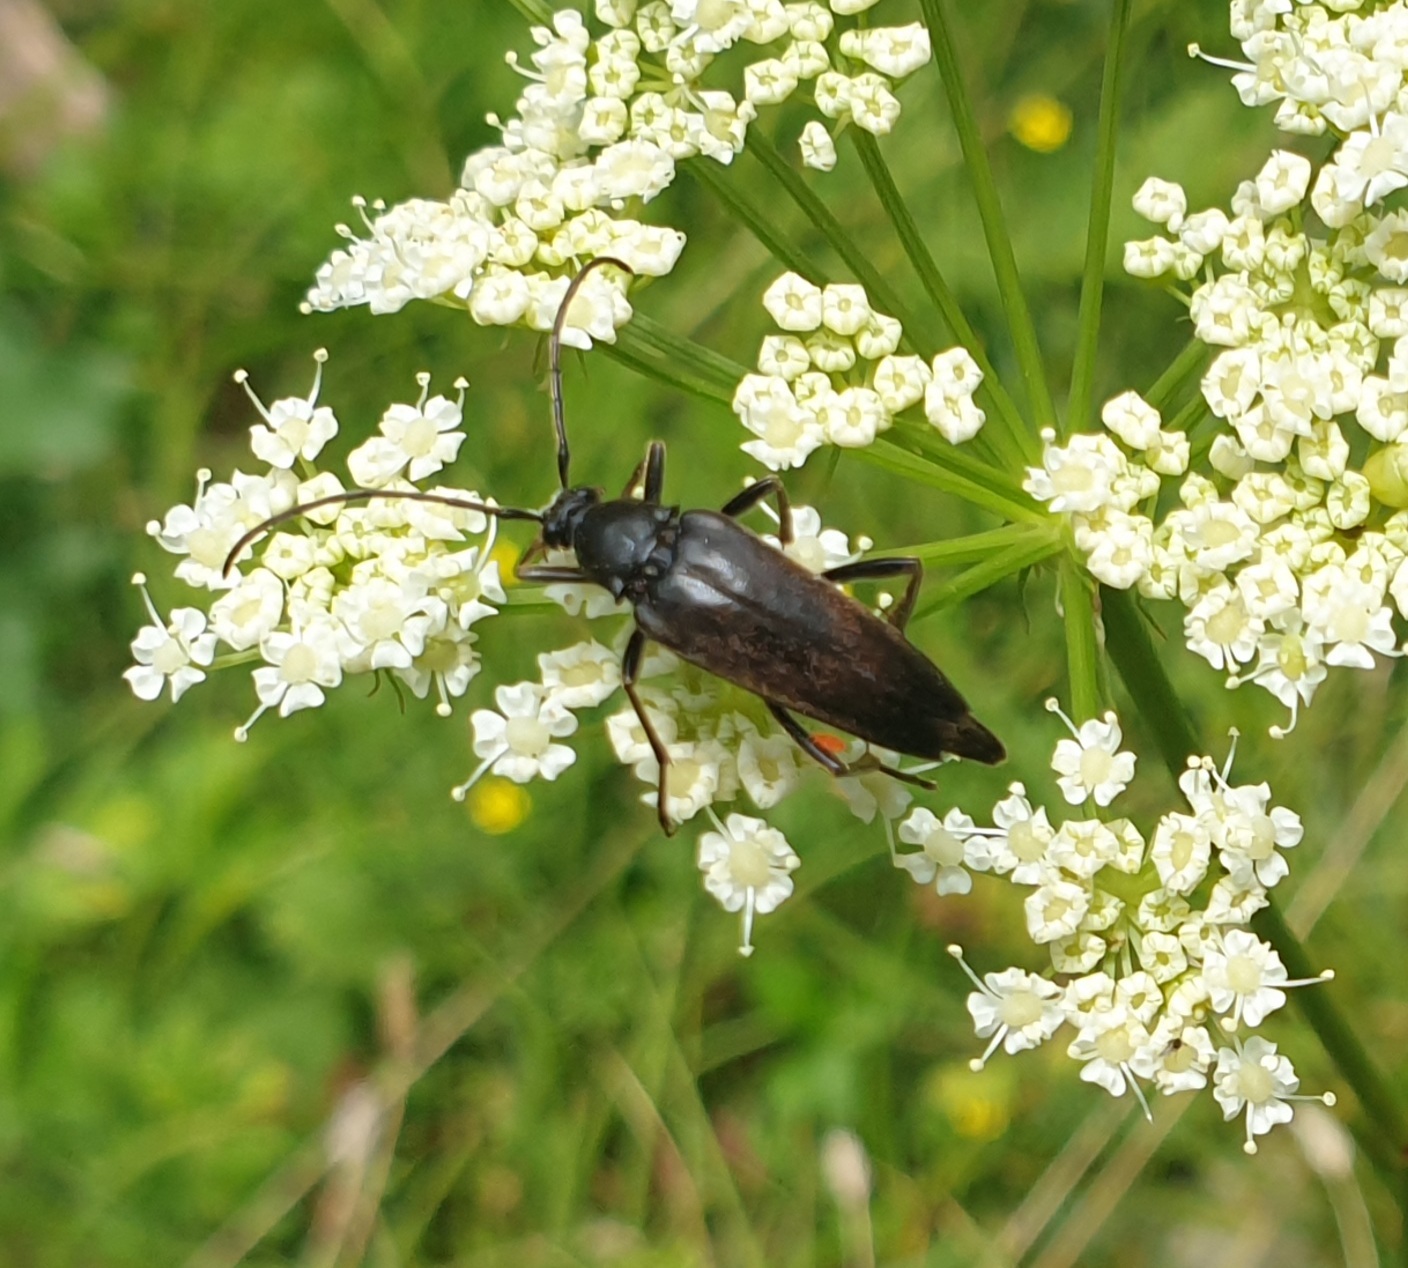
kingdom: Animalia
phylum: Arthropoda
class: Insecta
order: Coleoptera
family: Cerambycidae
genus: Etorofus
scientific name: Etorofus pubescens
